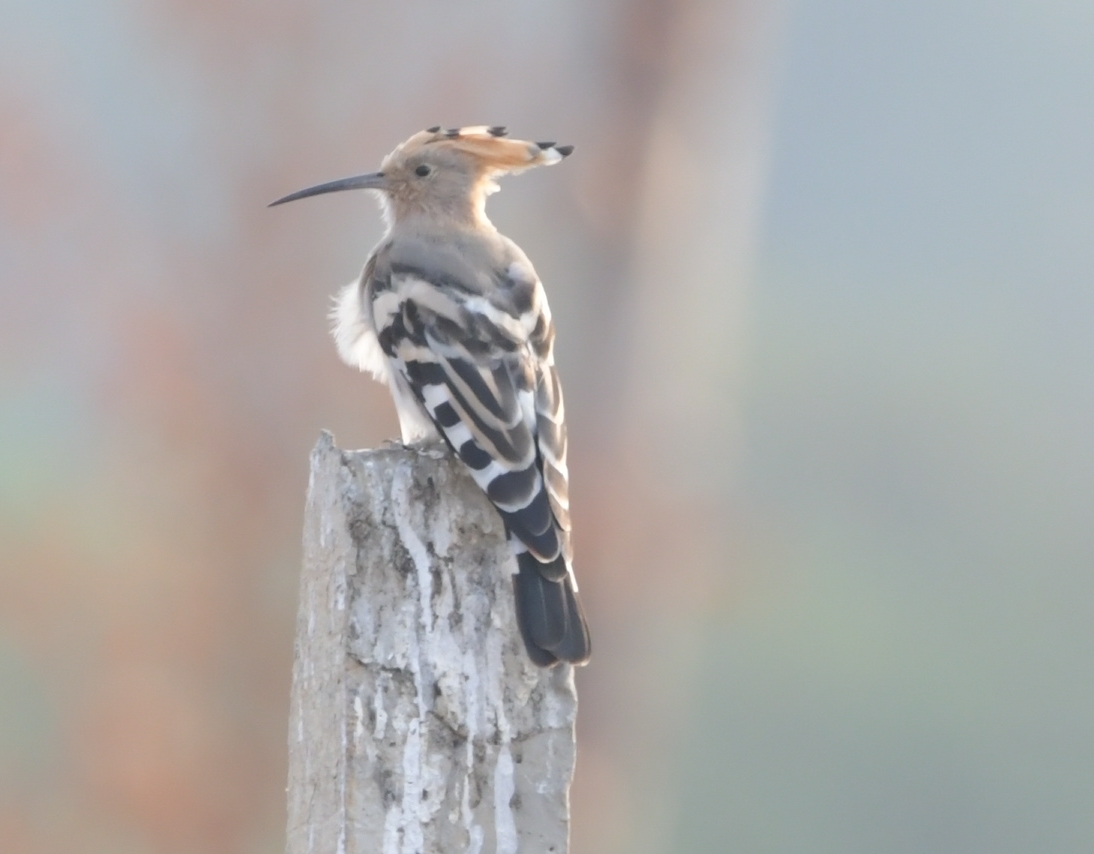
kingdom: Animalia
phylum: Chordata
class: Aves
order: Bucerotiformes
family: Upupidae
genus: Upupa
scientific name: Upupa epops
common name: Eurasian hoopoe
